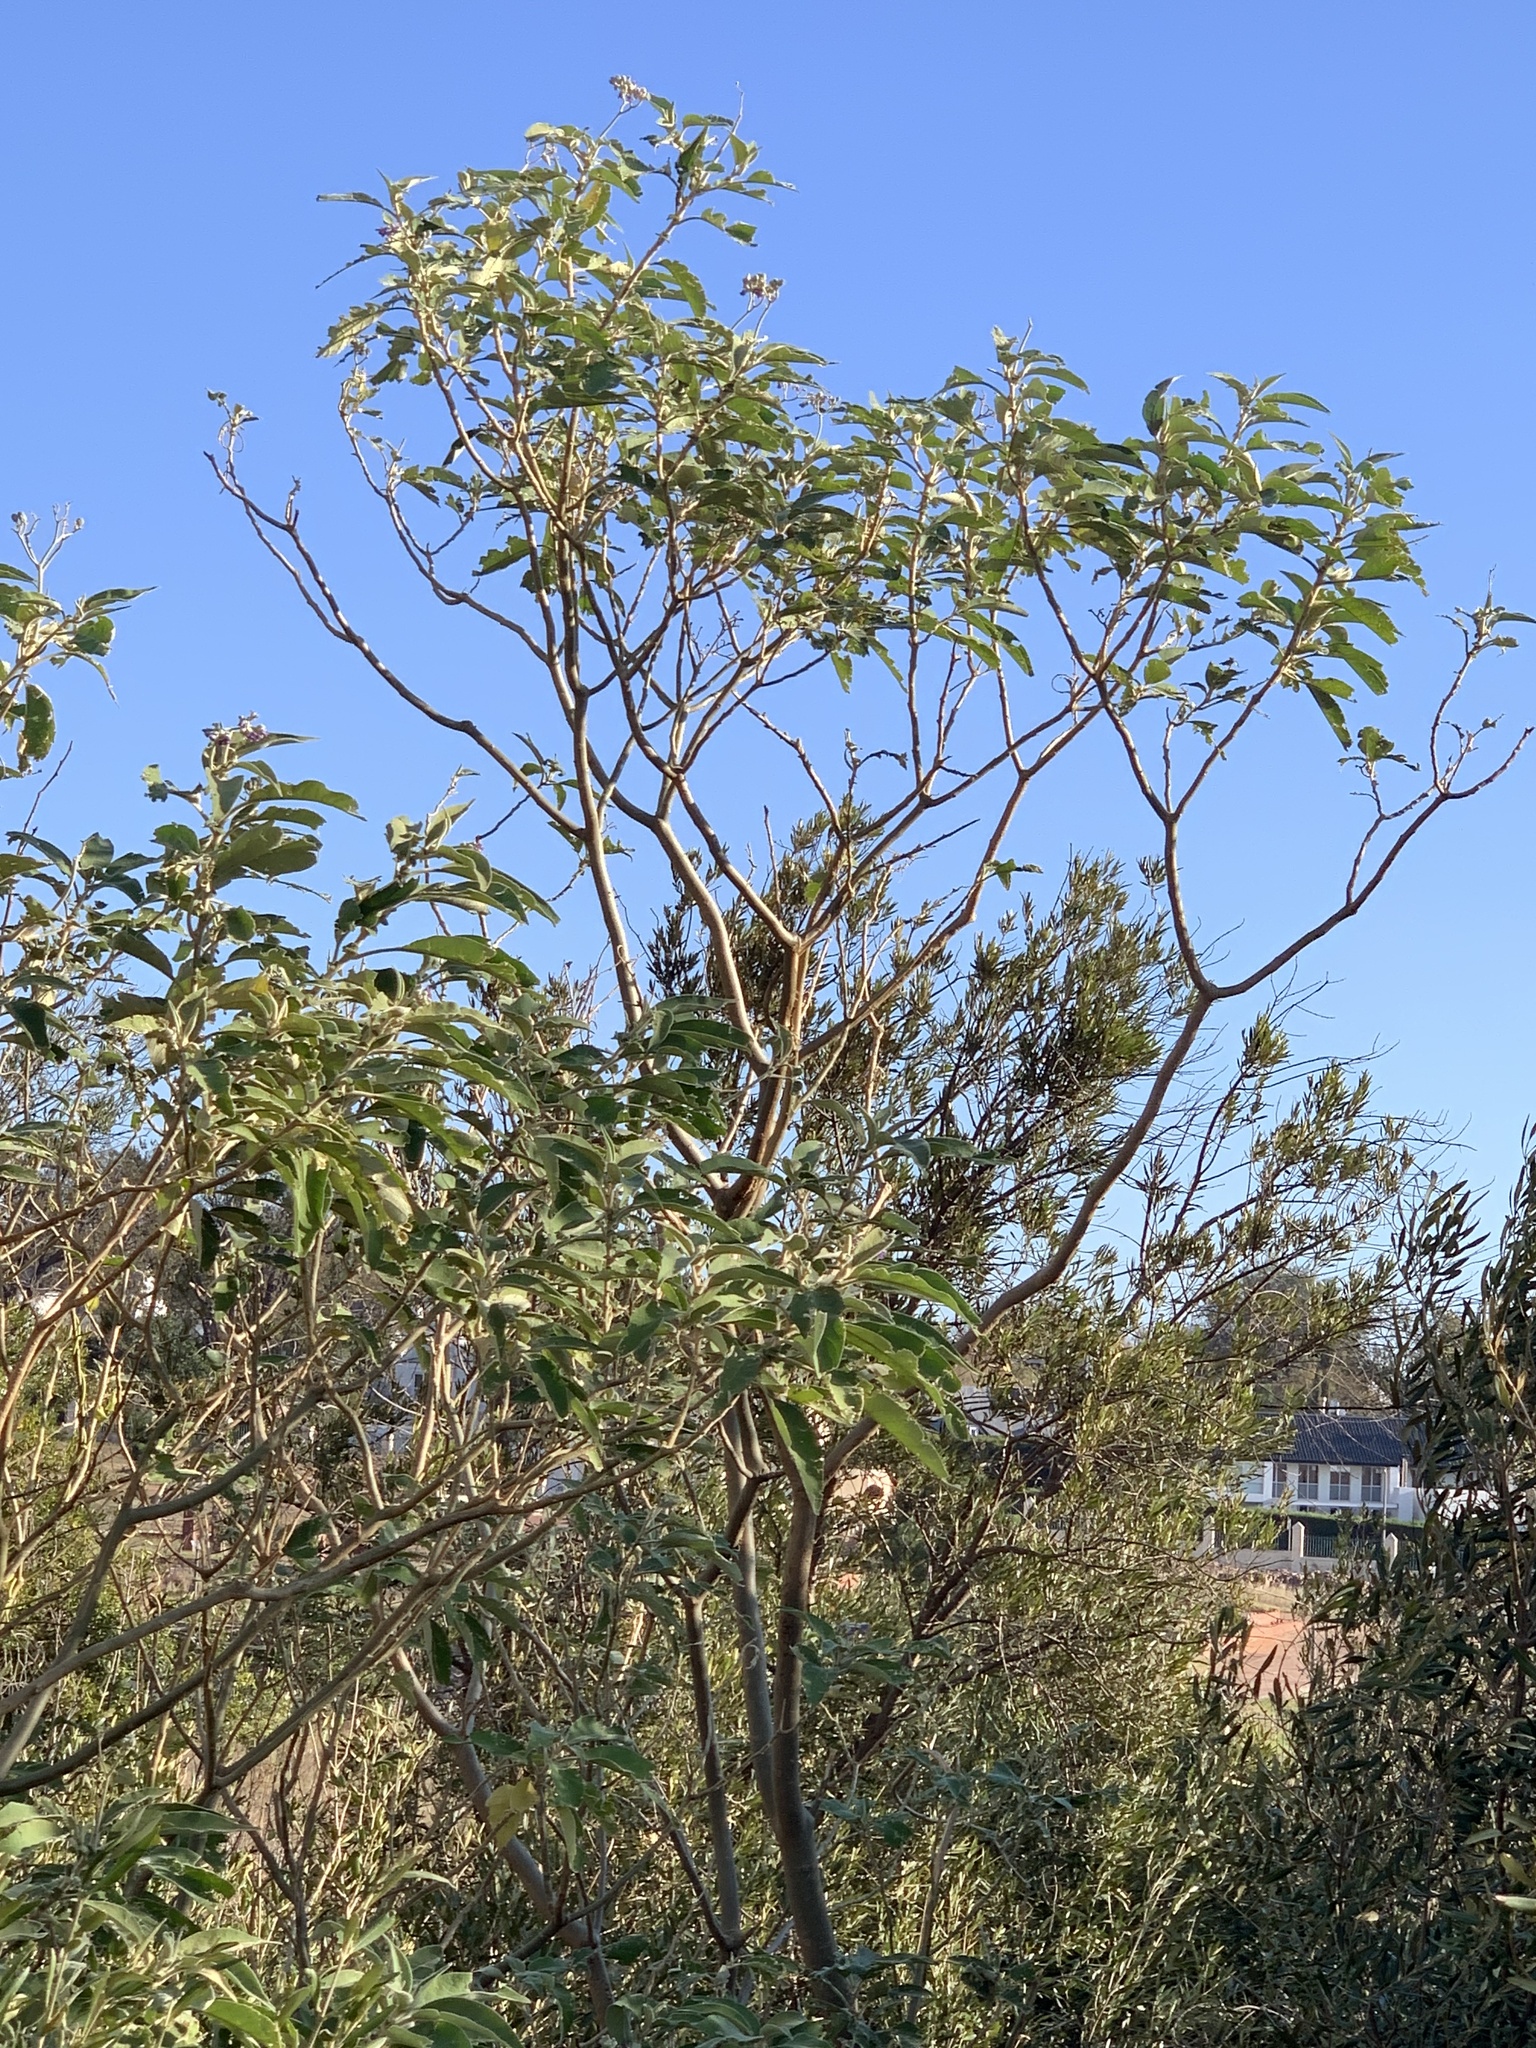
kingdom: Plantae
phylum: Tracheophyta
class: Magnoliopsida
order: Solanales
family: Solanaceae
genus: Solanum
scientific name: Solanum mauritianum
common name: Earleaf nightshade
